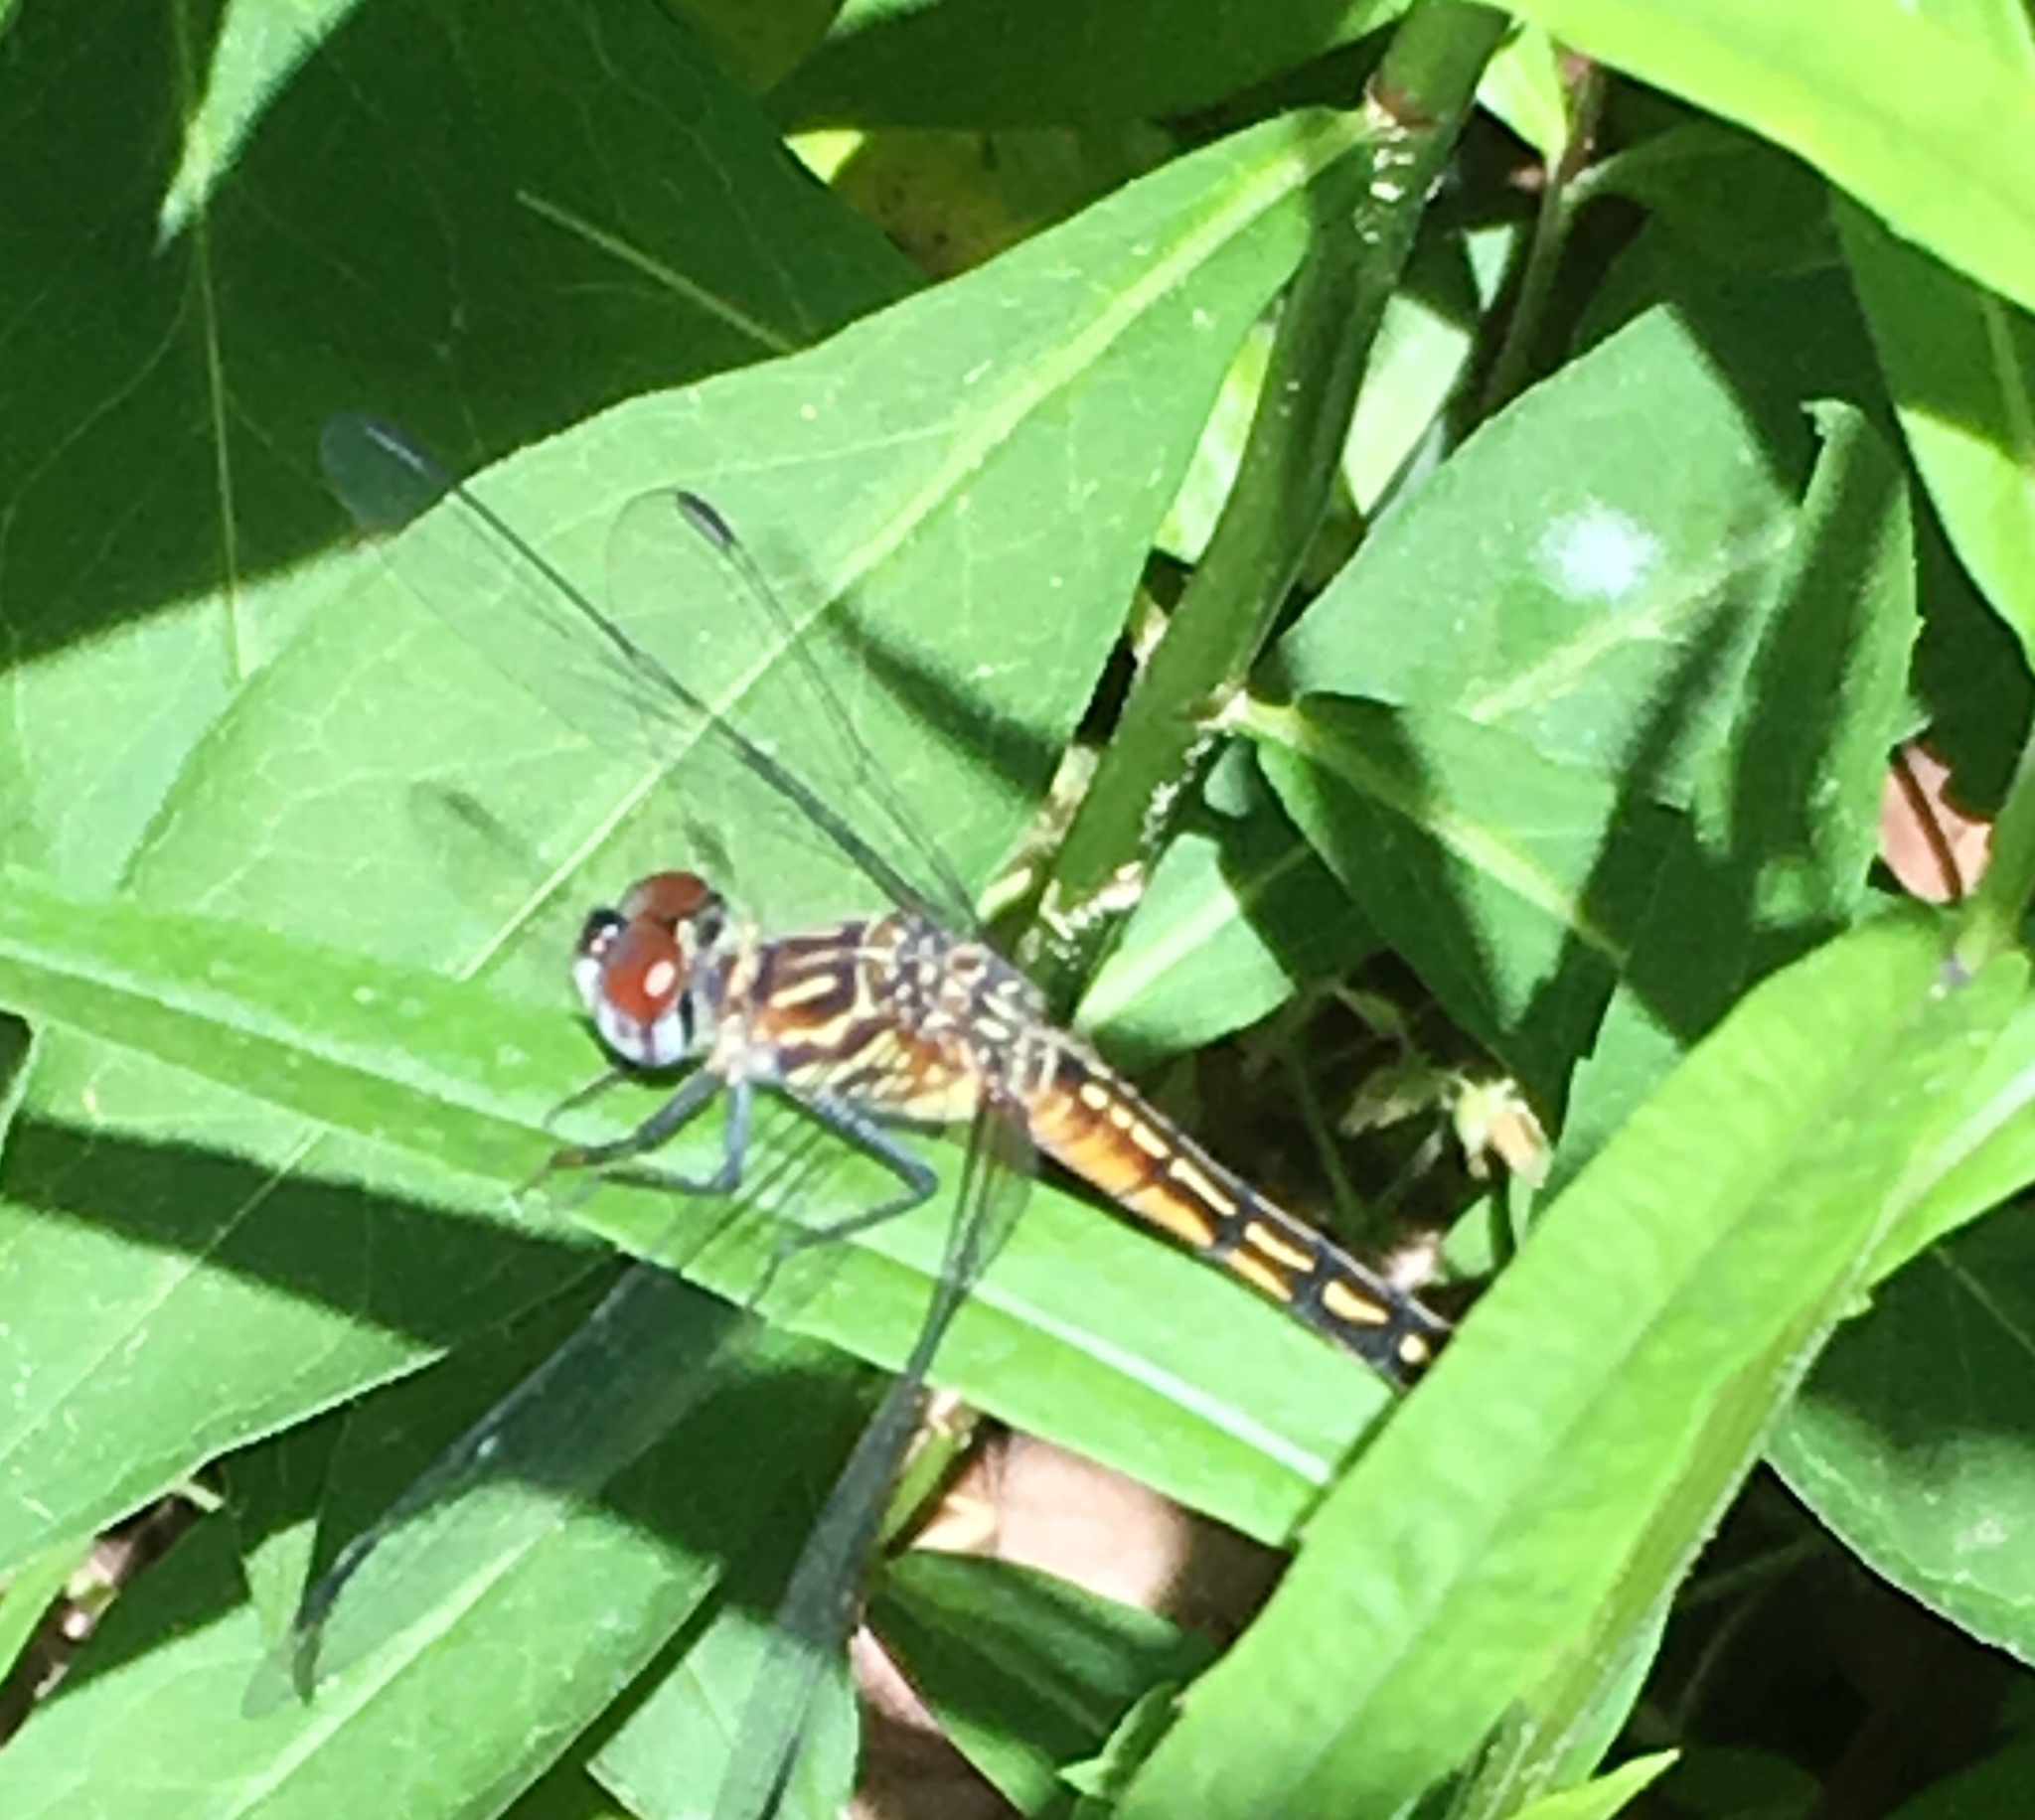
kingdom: Animalia
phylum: Arthropoda
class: Insecta
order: Odonata
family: Libellulidae
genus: Pachydiplax
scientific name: Pachydiplax longipennis
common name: Blue dasher
